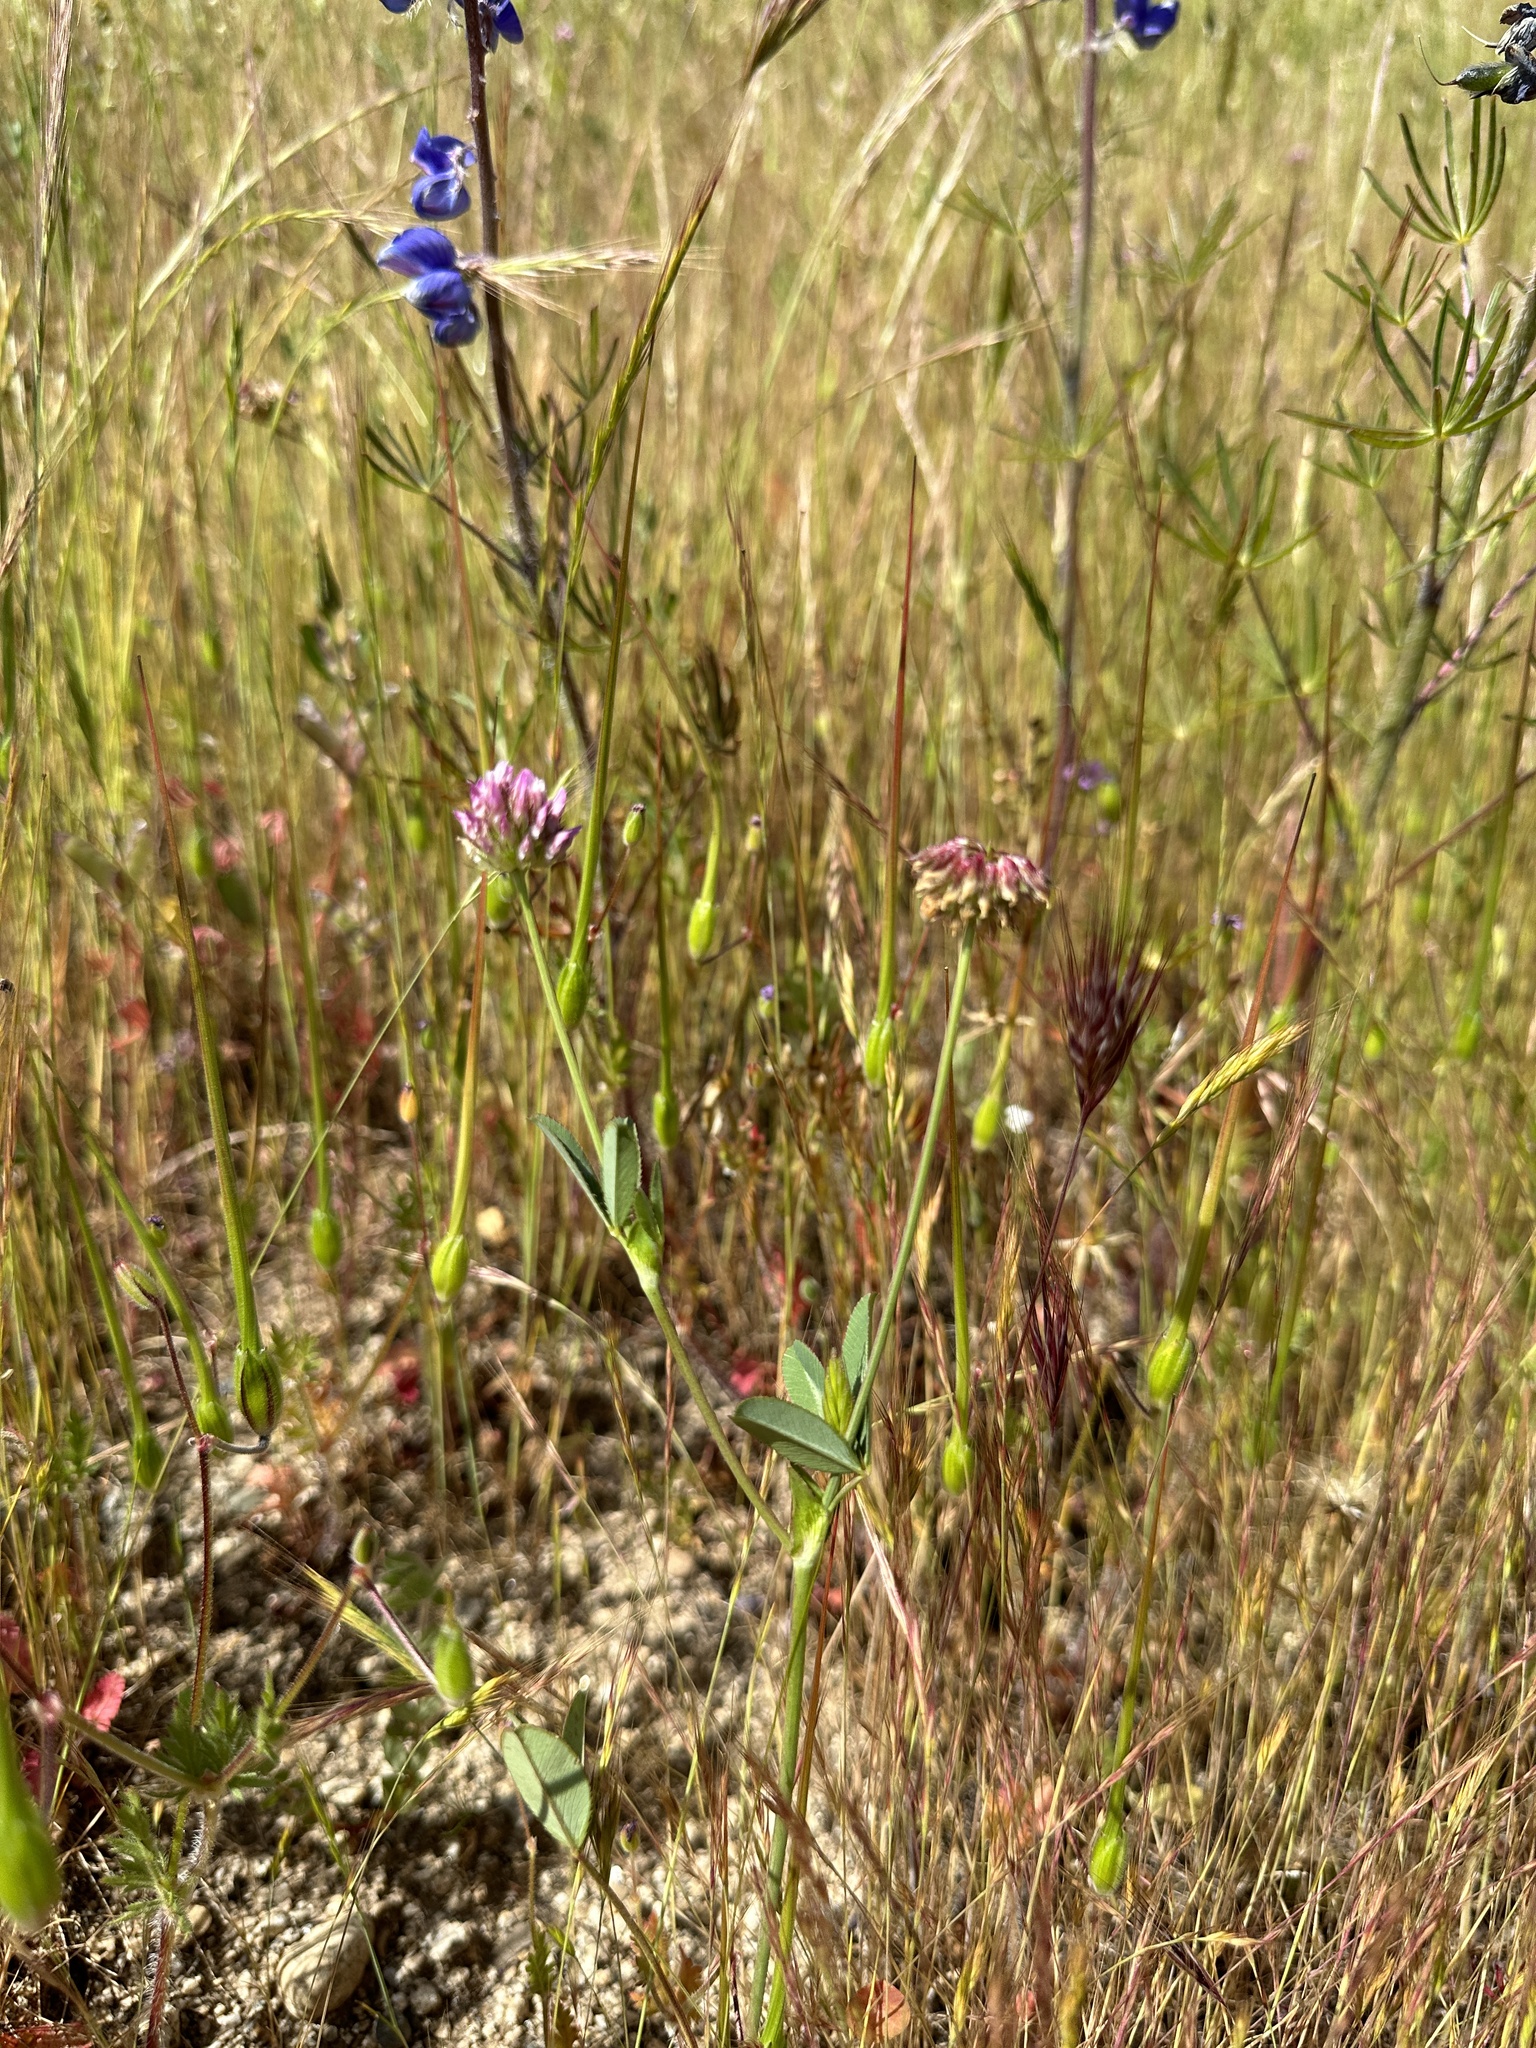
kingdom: Plantae
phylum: Tracheophyta
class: Magnoliopsida
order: Fabales
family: Fabaceae
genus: Trifolium
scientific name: Trifolium ciliolatum
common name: Foothill clover
